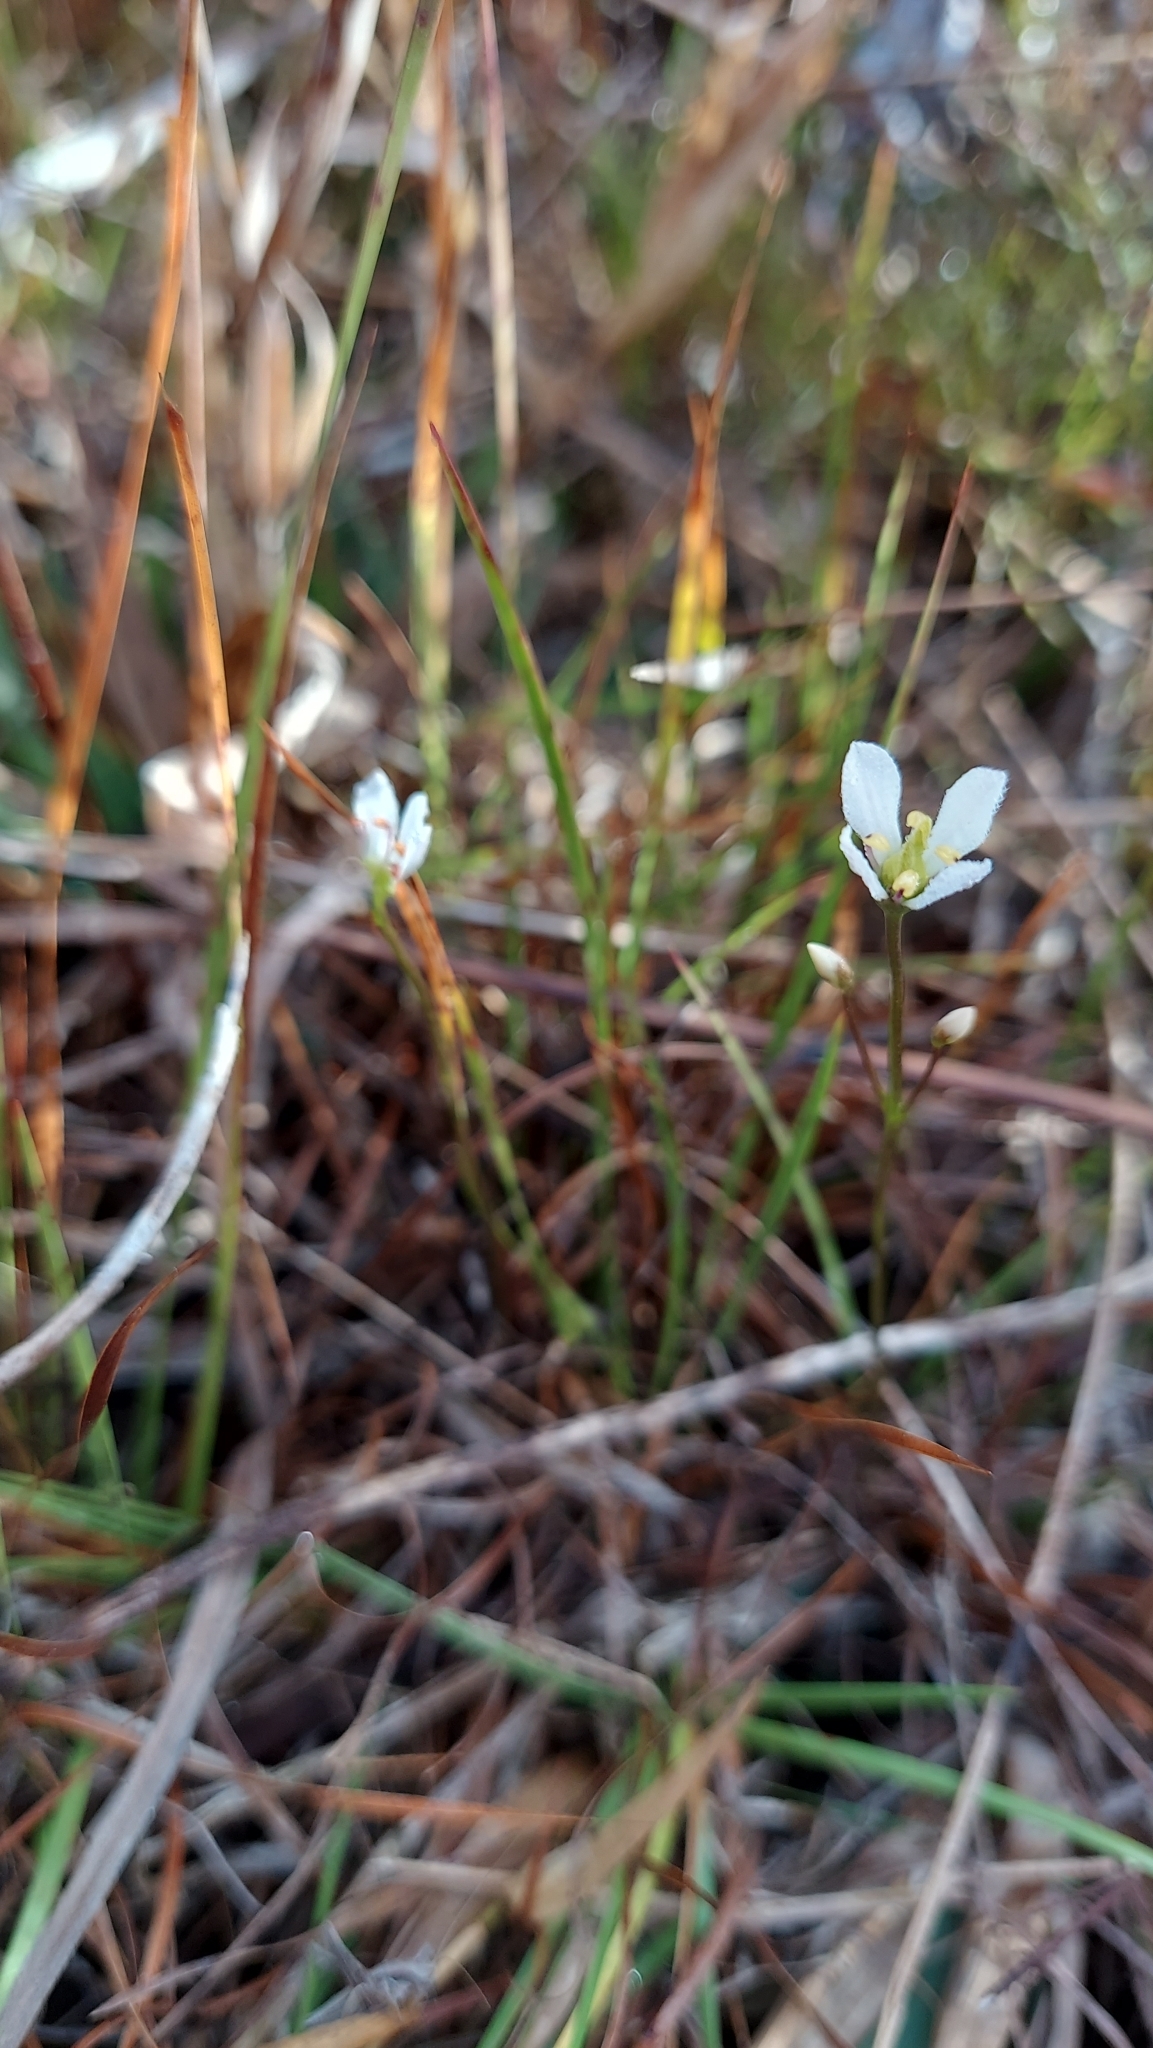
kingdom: Plantae
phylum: Tracheophyta
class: Magnoliopsida
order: Gentianales
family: Gentianaceae
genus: Bartonia
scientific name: Bartonia verna
